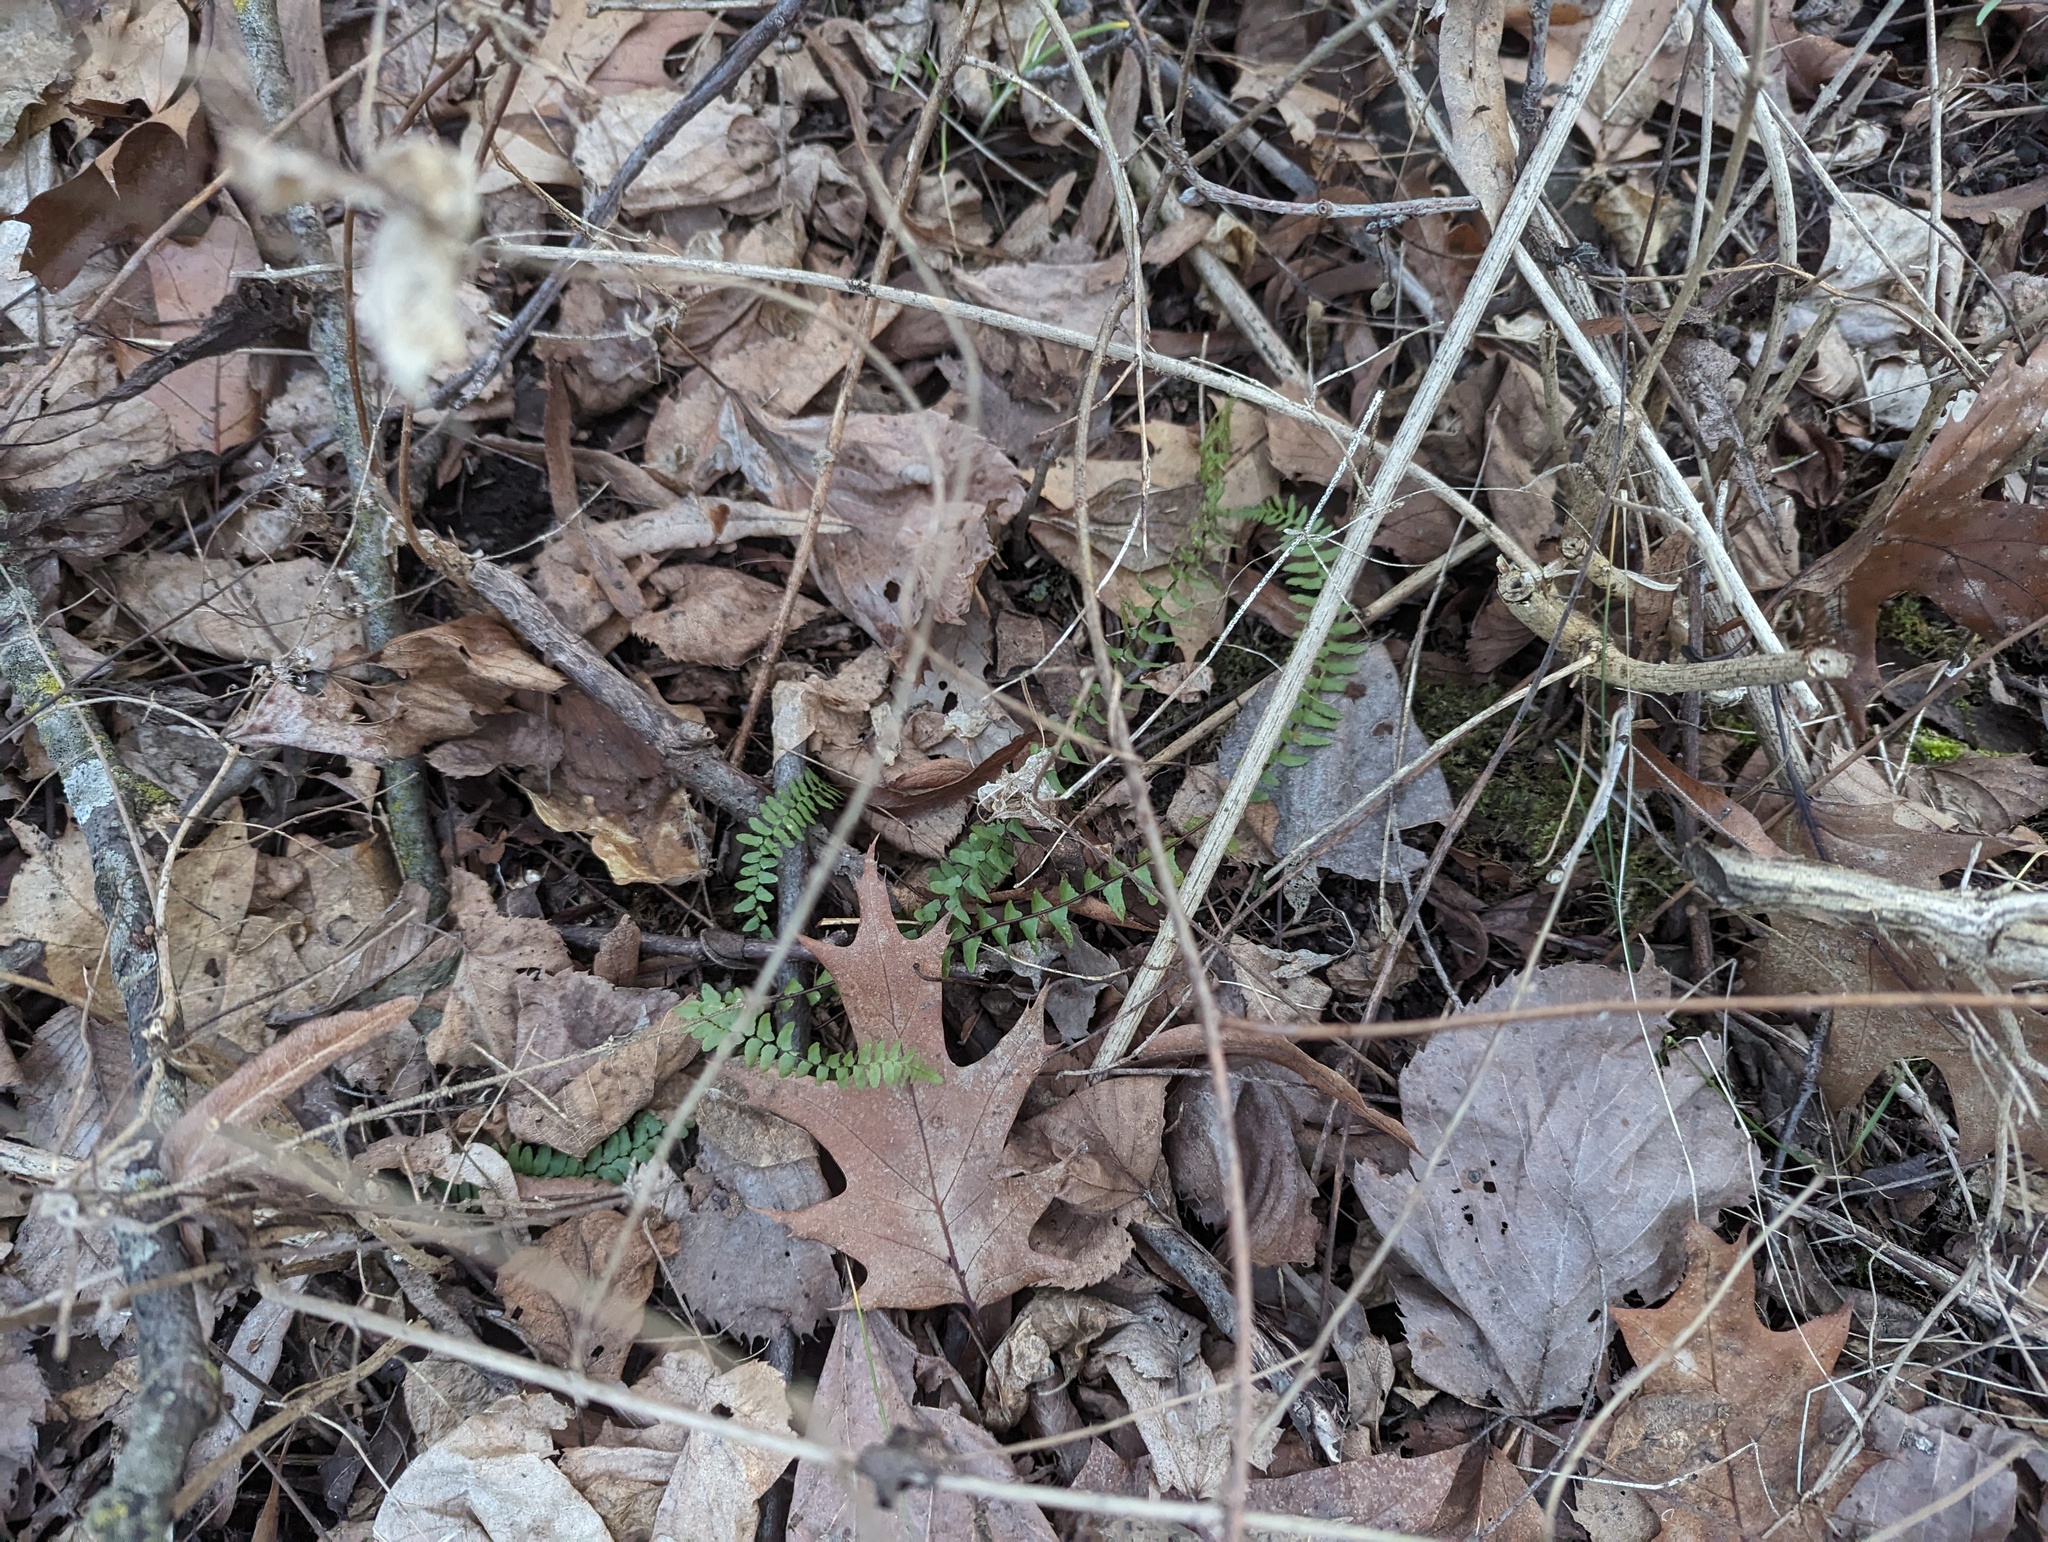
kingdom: Plantae
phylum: Tracheophyta
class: Polypodiopsida
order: Polypodiales
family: Aspleniaceae
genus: Asplenium
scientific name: Asplenium platyneuron
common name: Ebony spleenwort
